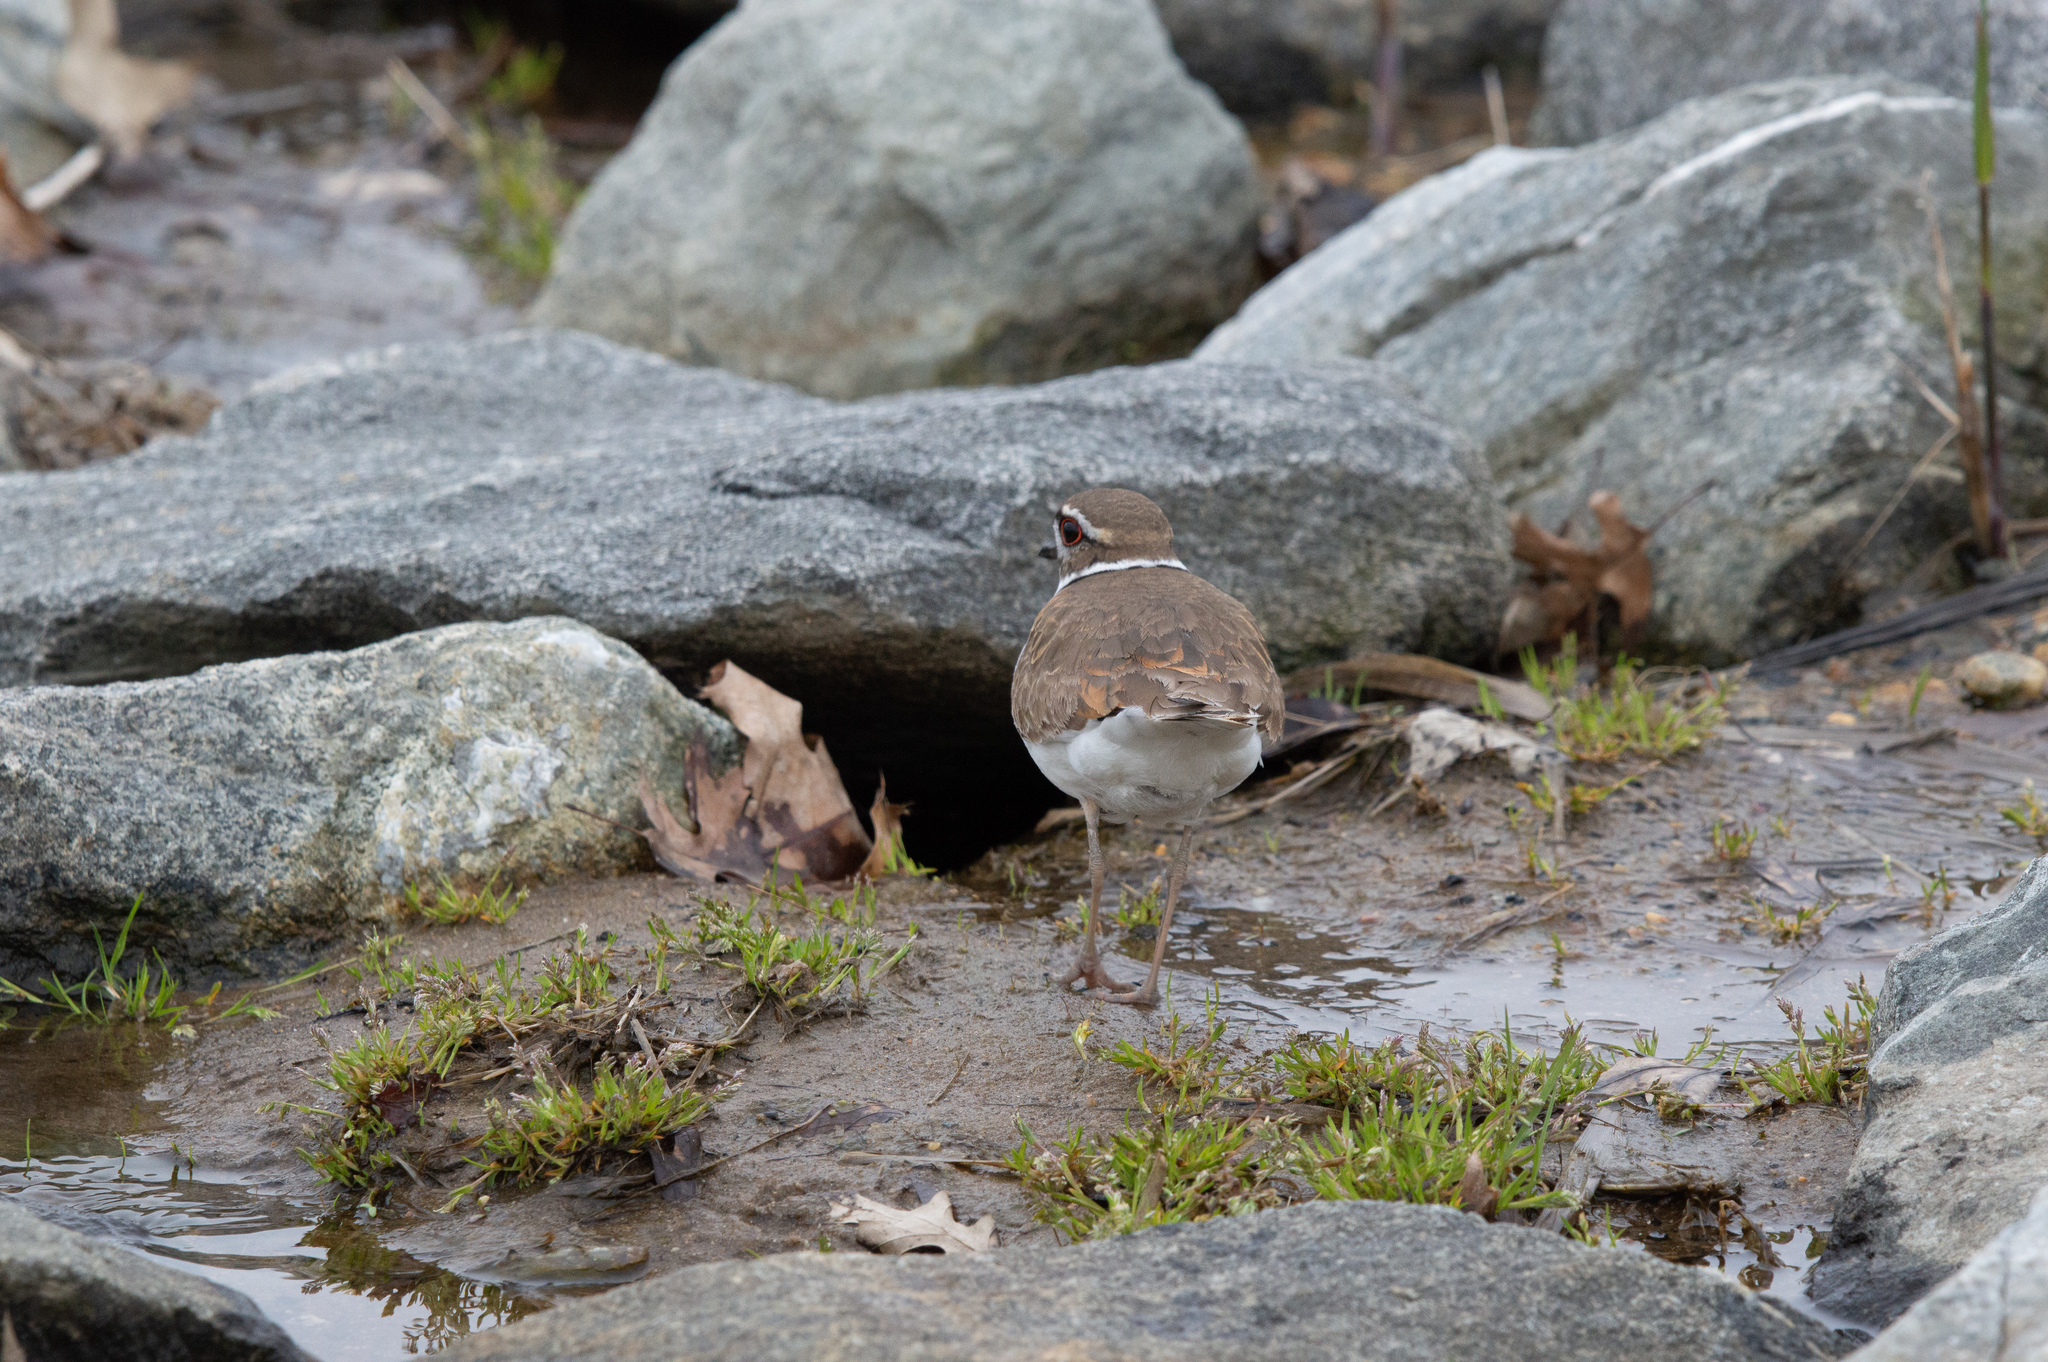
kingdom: Animalia
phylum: Chordata
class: Aves
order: Charadriiformes
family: Charadriidae
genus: Charadrius
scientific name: Charadrius vociferus
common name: Killdeer
